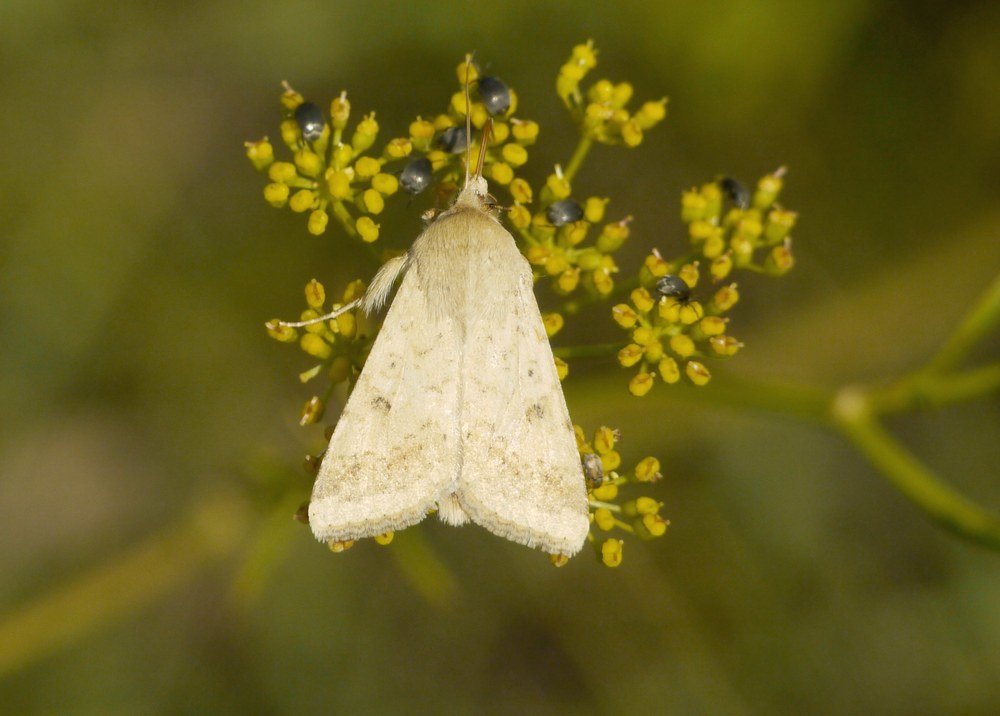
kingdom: Animalia
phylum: Arthropoda
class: Insecta
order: Lepidoptera
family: Noctuidae
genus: Helicoverpa
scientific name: Helicoverpa armigera
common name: Cotton bollworm
